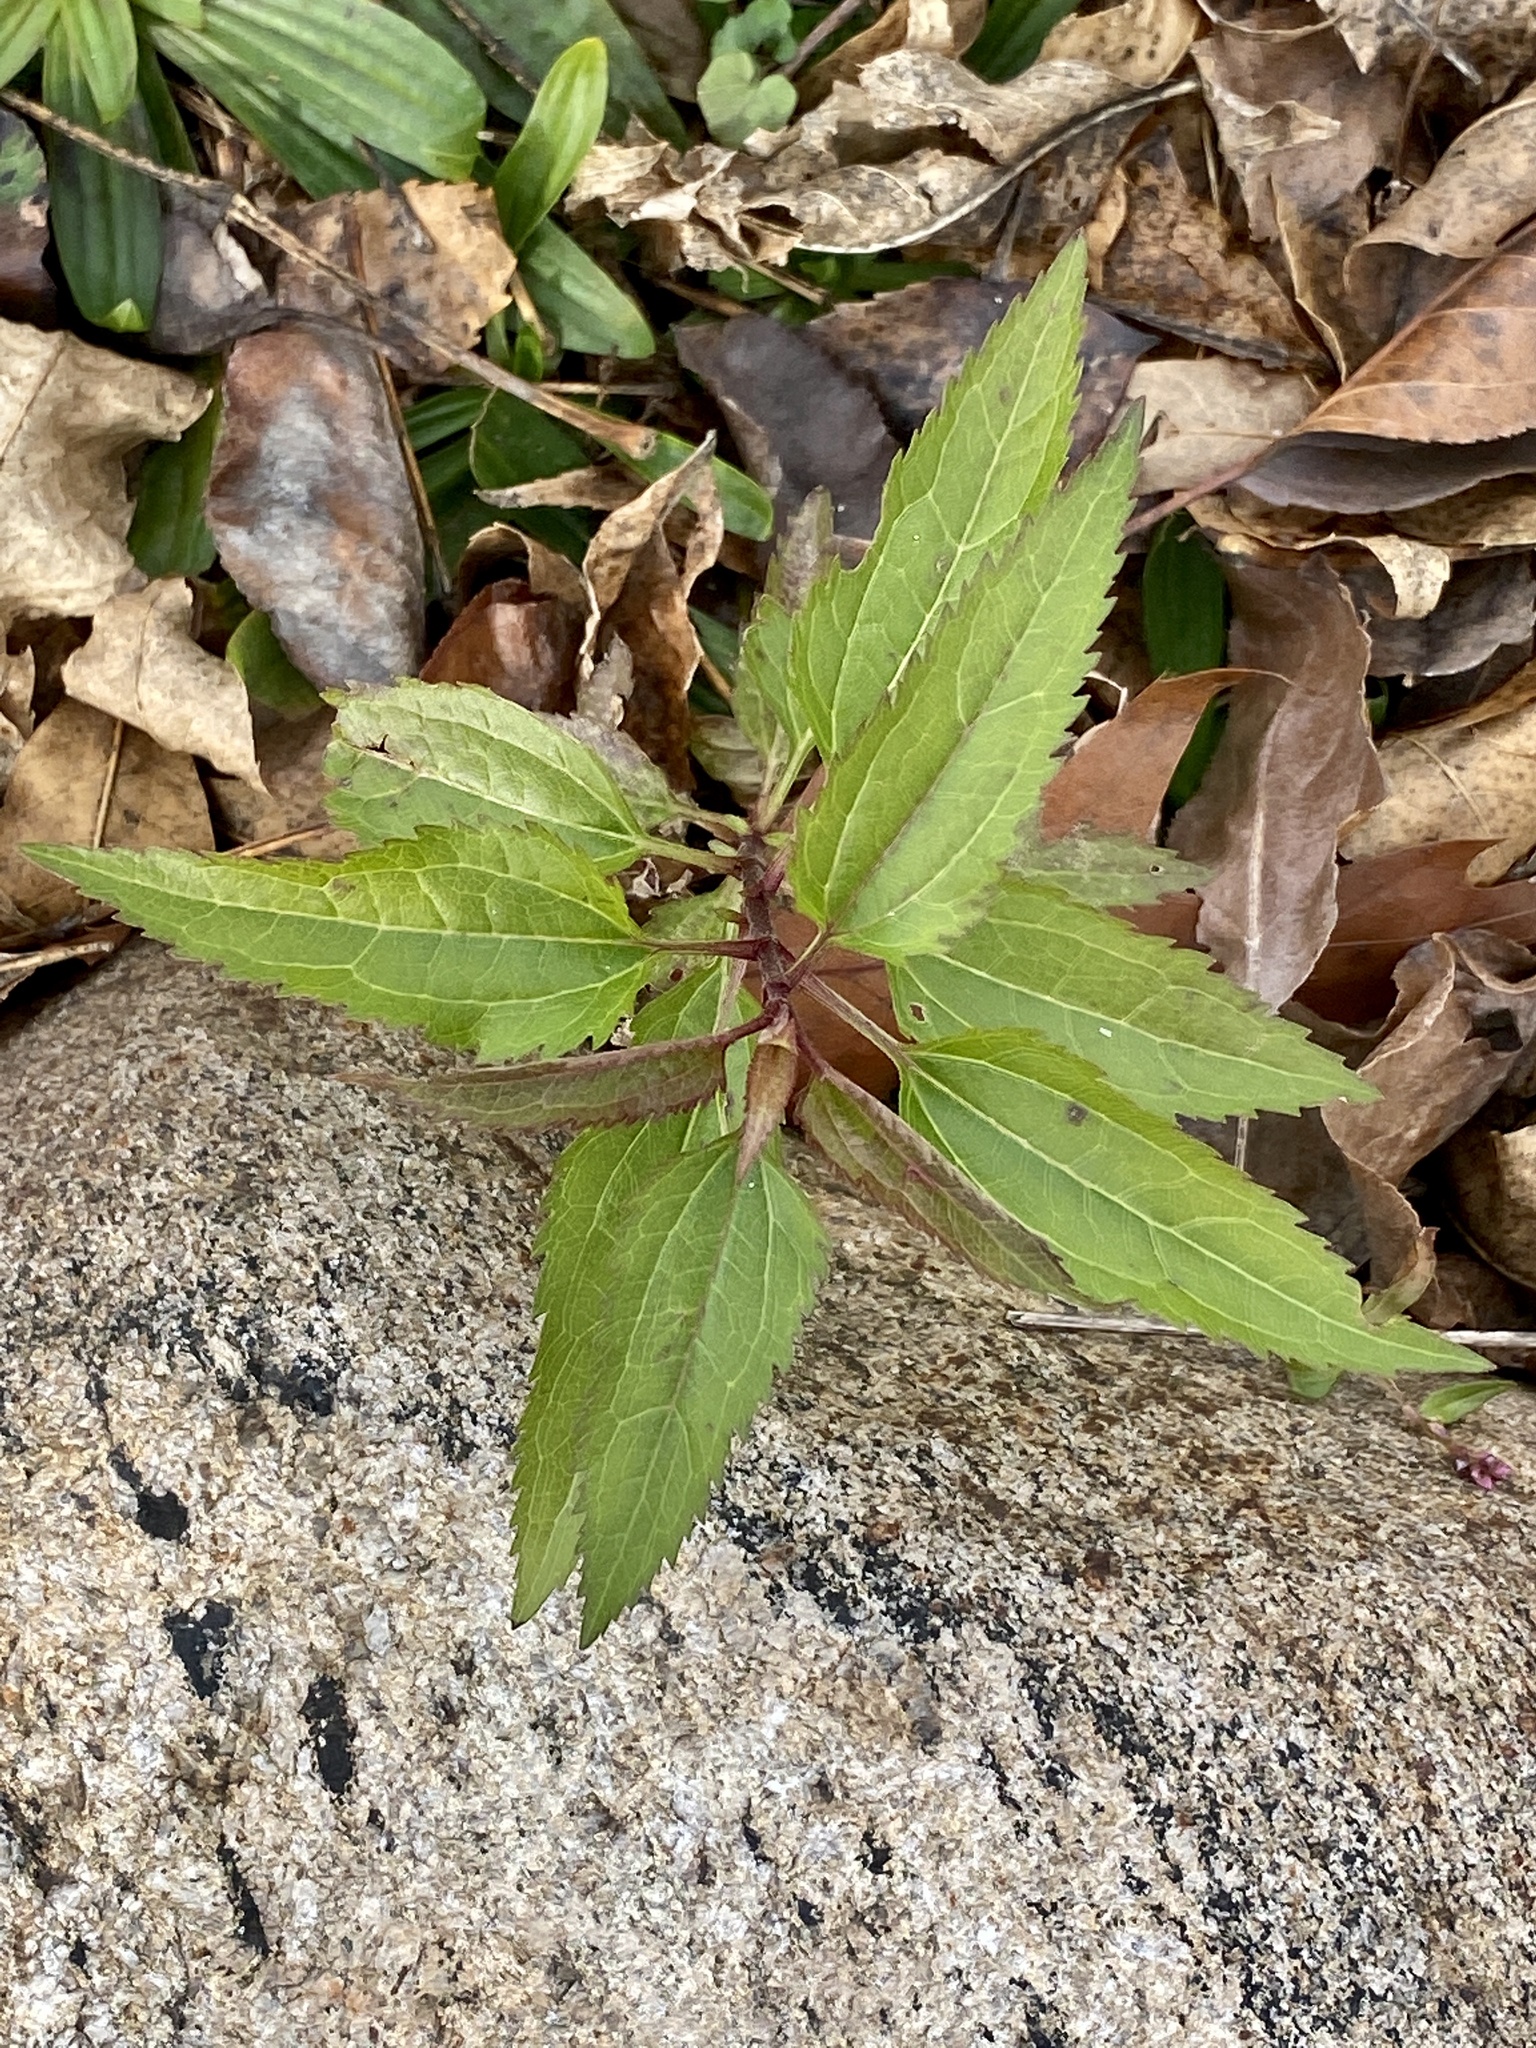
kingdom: Plantae
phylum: Tracheophyta
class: Magnoliopsida
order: Asterales
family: Asteraceae
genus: Eupatorium
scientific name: Eupatorium serotinum
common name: Late boneset
